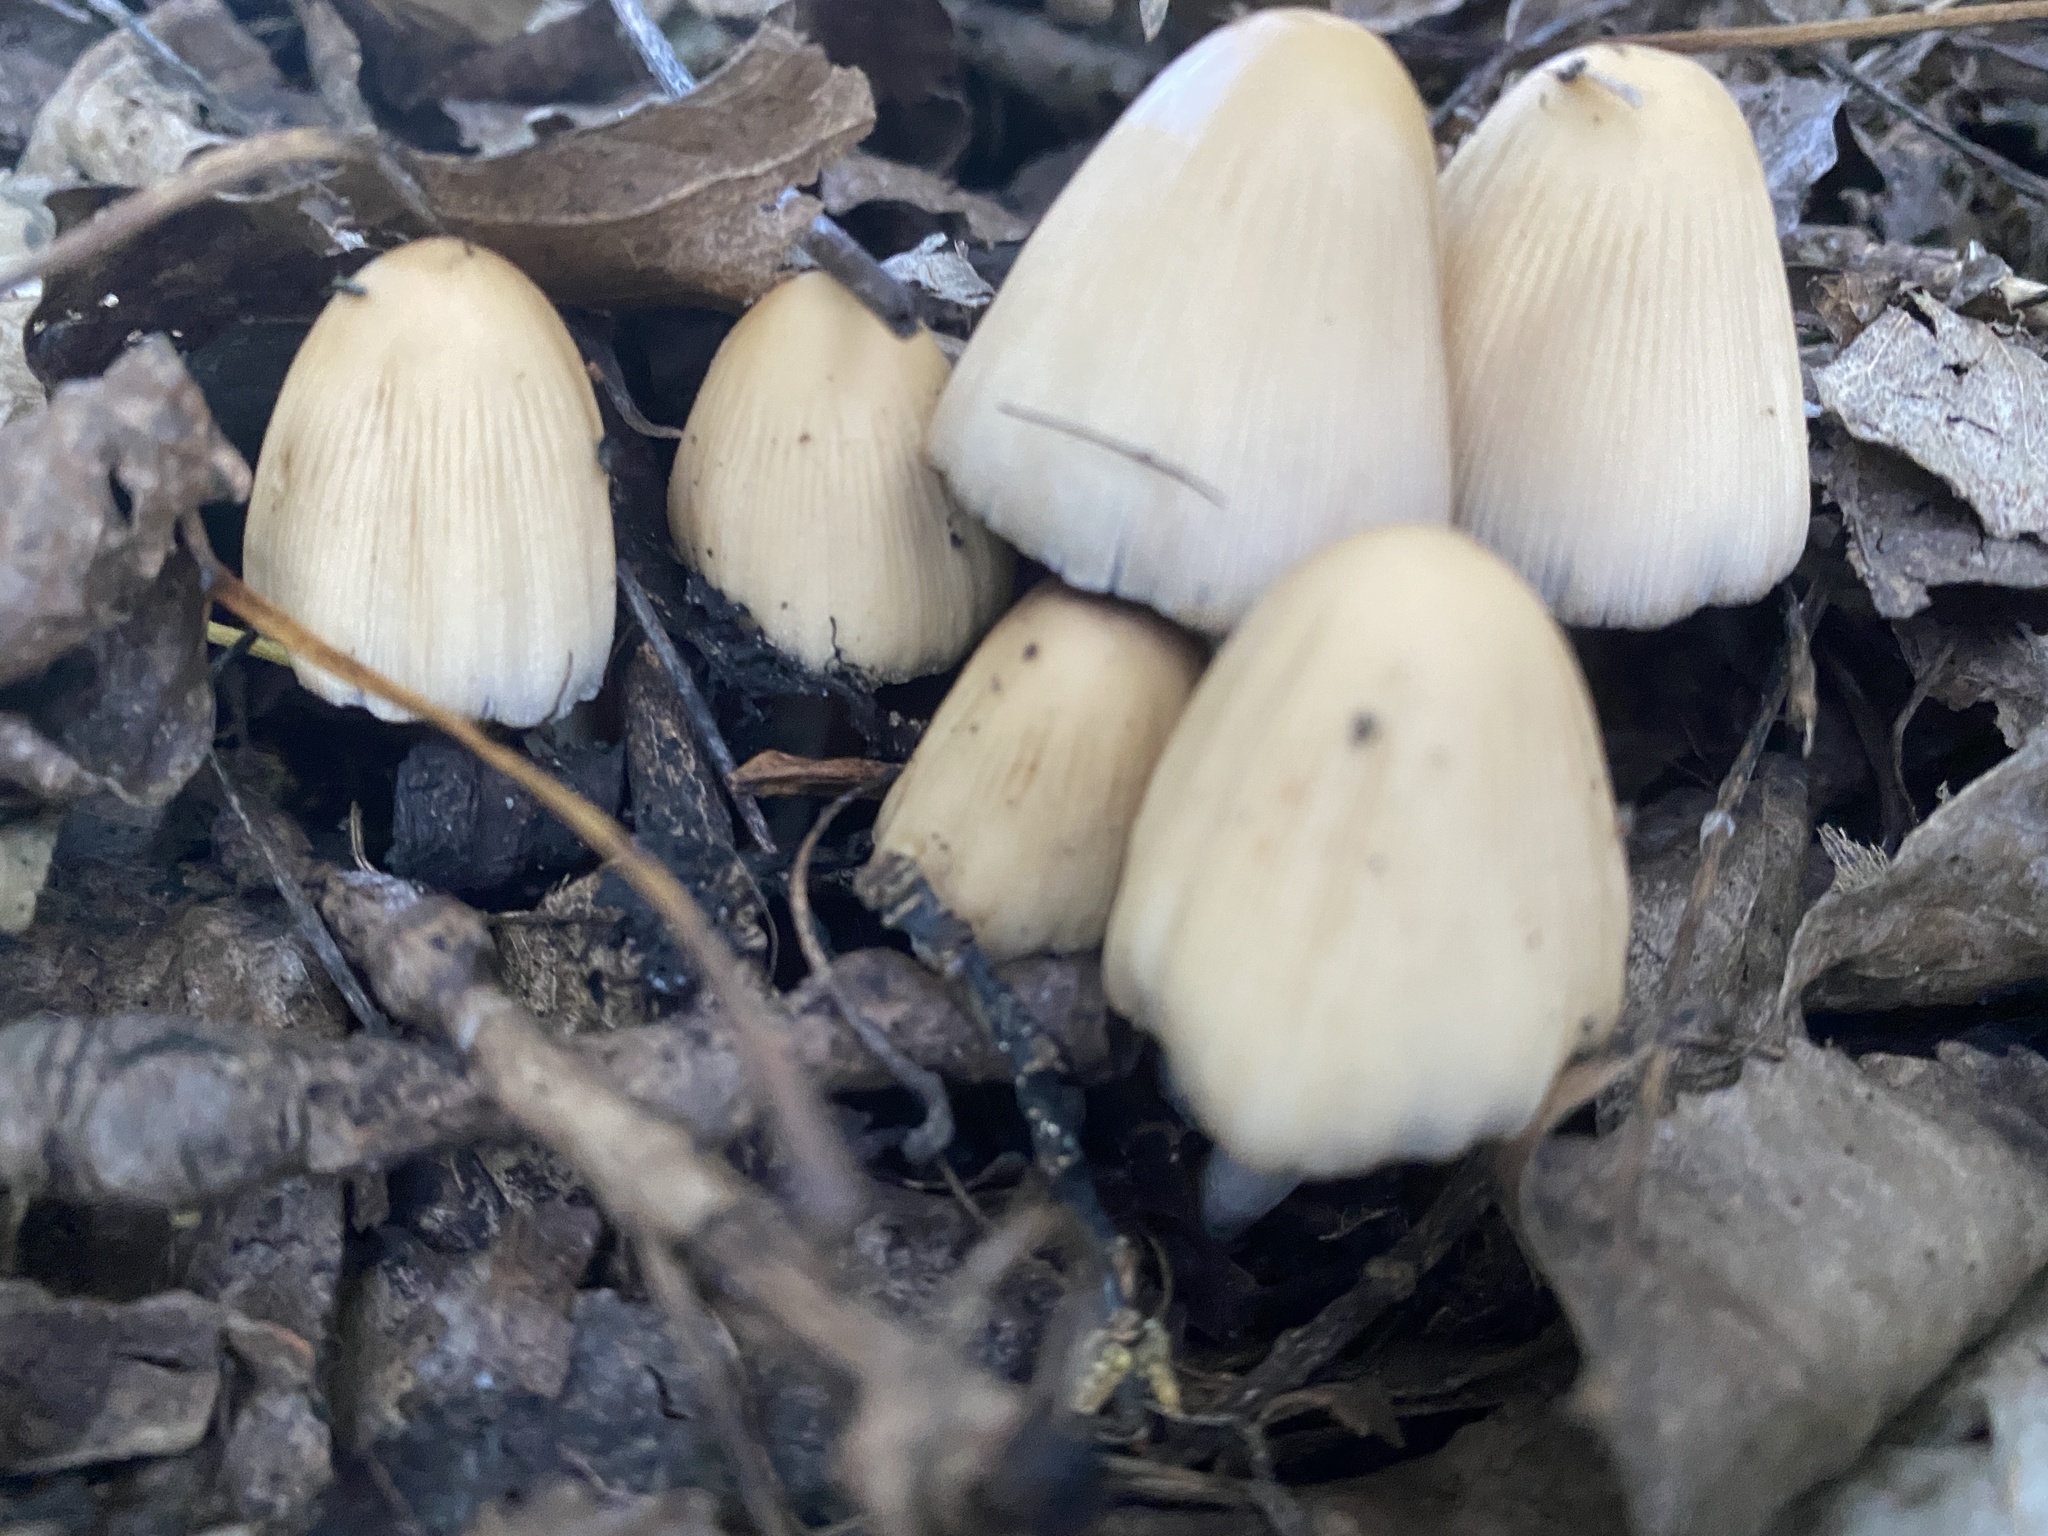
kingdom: Fungi
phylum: Basidiomycota
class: Agaricomycetes
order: Agaricales
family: Psathyrellaceae
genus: Coprinellus
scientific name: Coprinellus micaceus
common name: Glistening ink-cap
